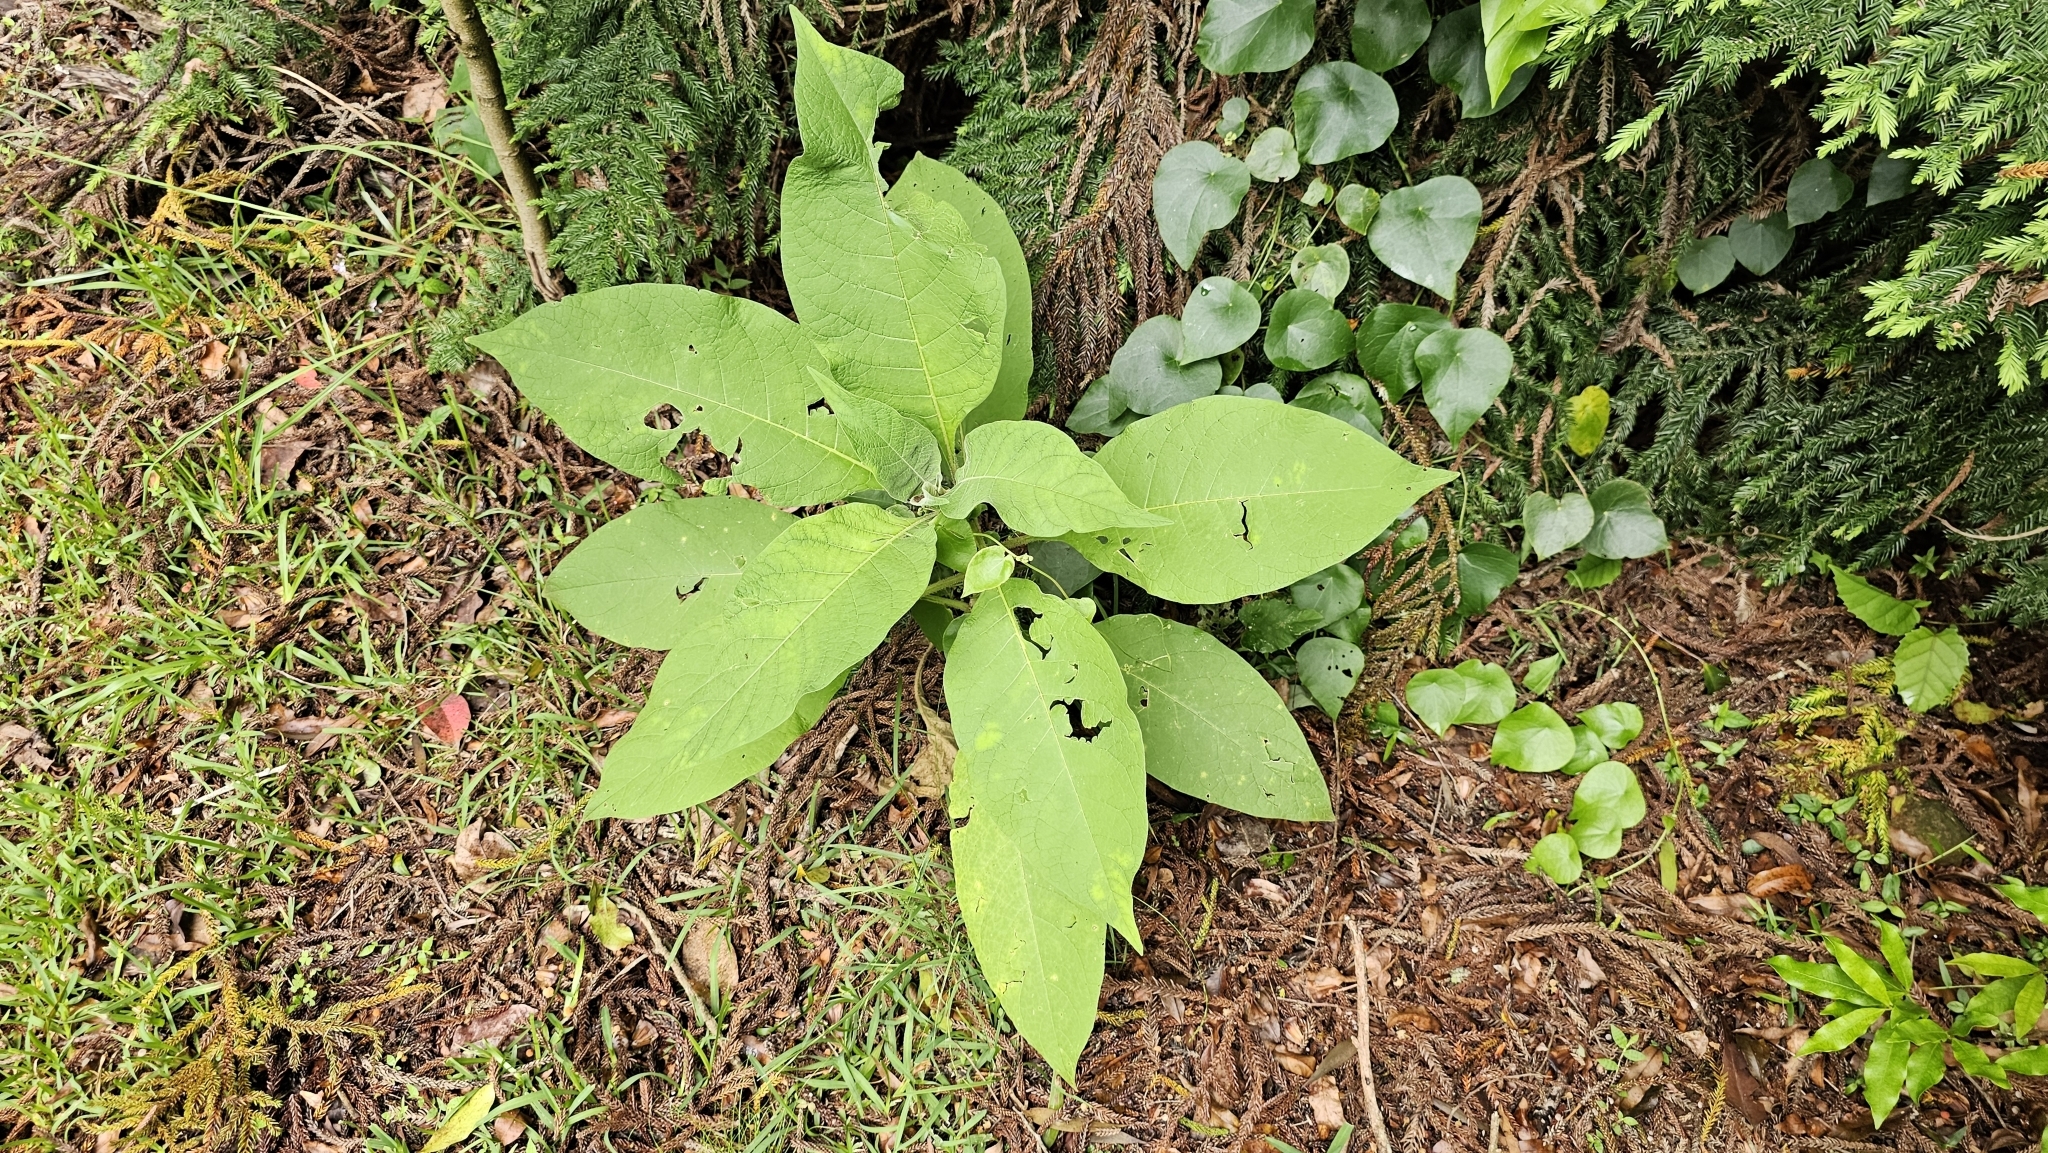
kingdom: Plantae
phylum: Tracheophyta
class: Magnoliopsida
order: Solanales
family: Solanaceae
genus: Solanum
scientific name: Solanum mauritianum
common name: Earleaf nightshade
